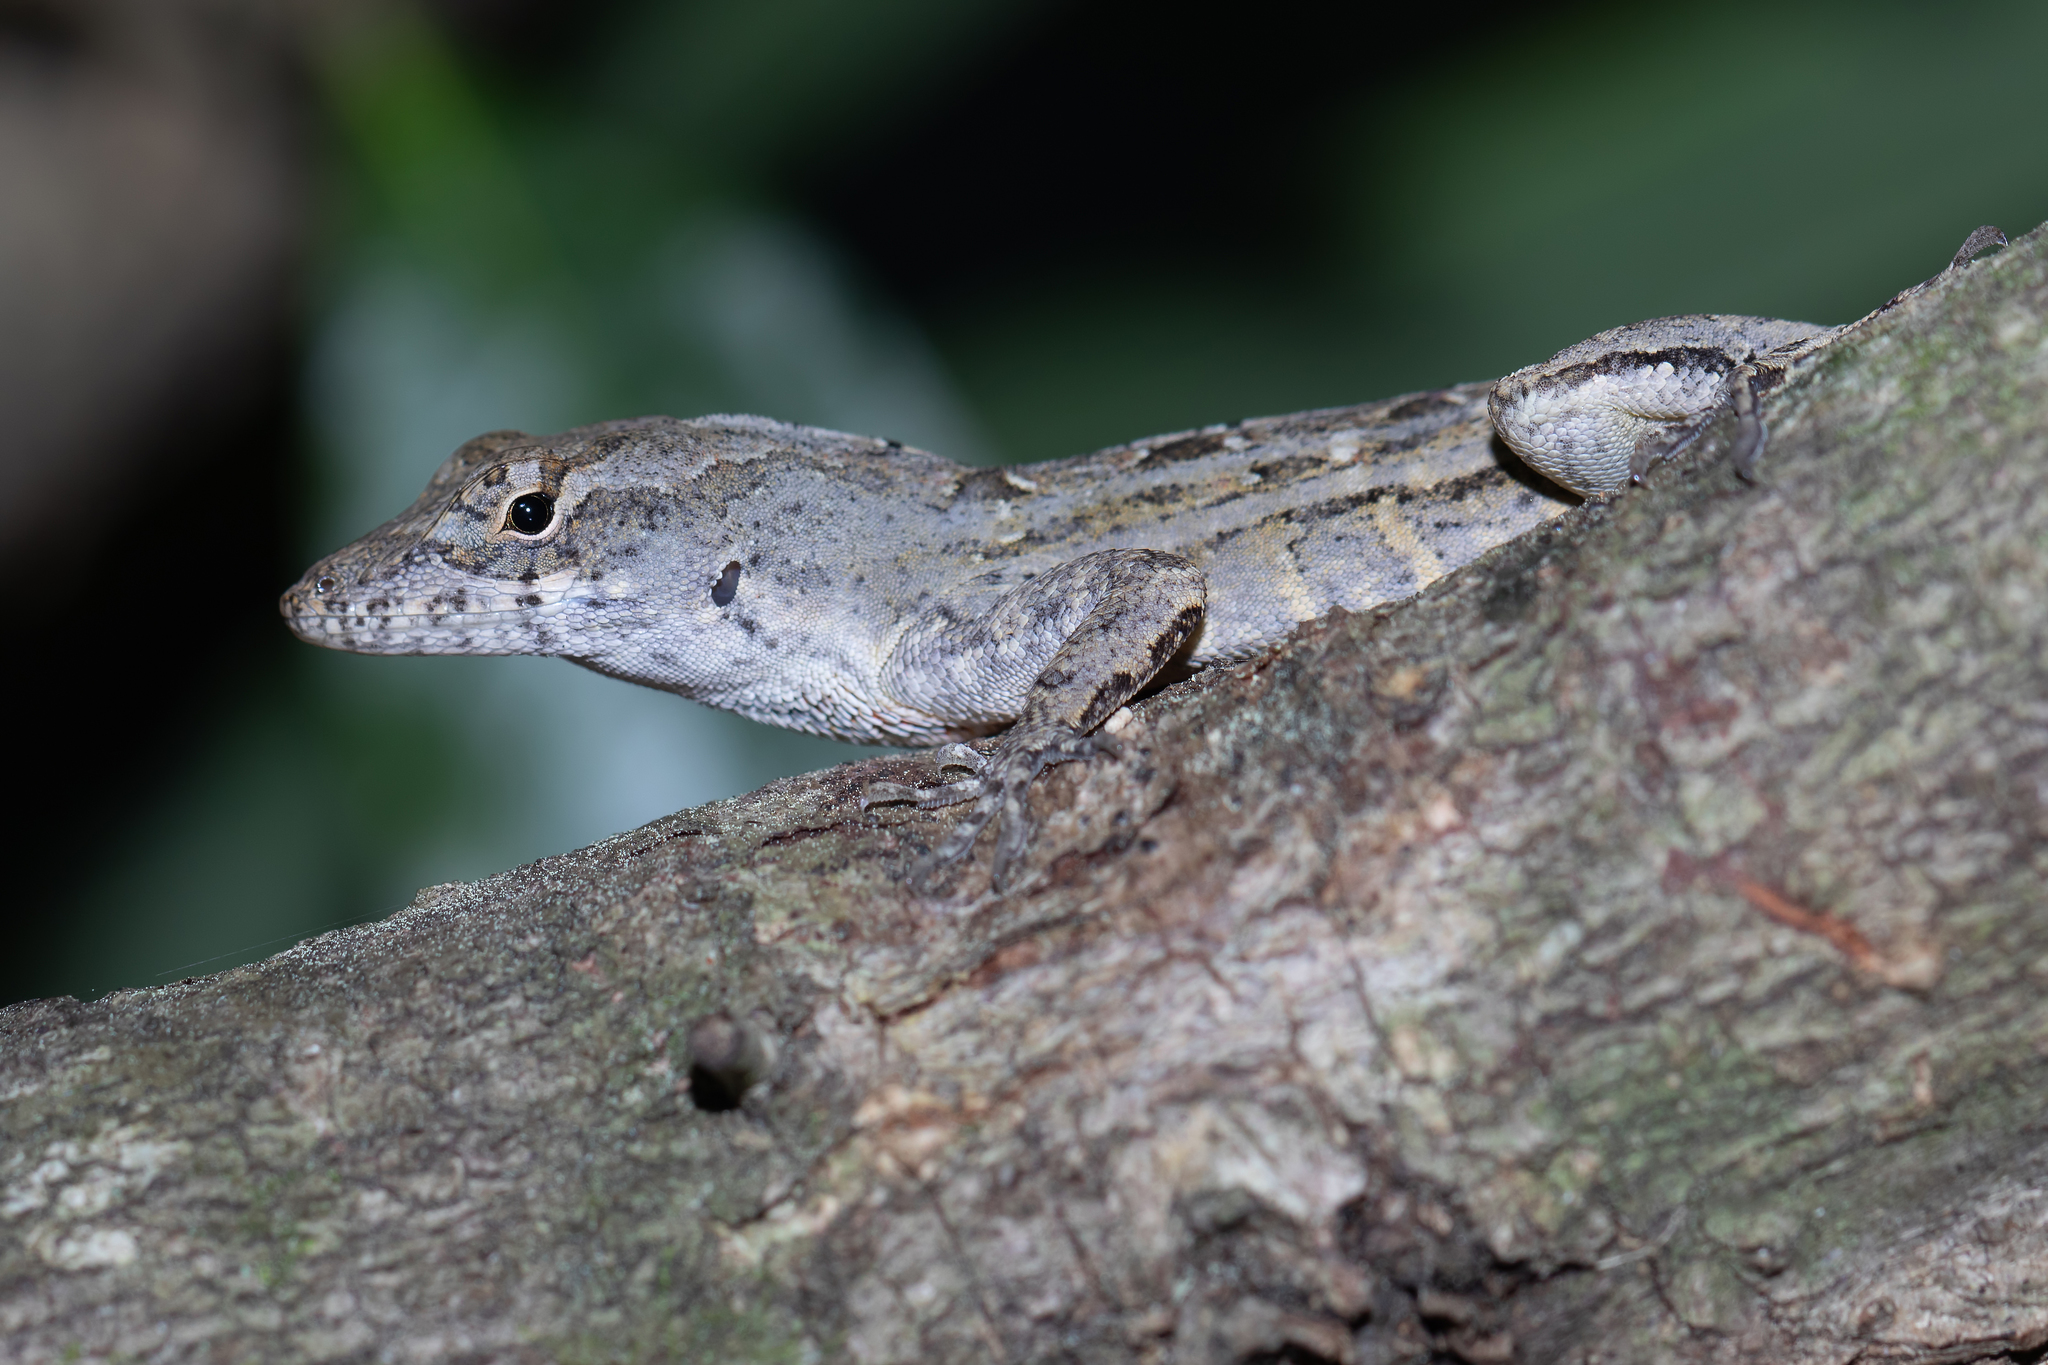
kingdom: Animalia
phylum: Chordata
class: Squamata
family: Dactyloidae
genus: Anolis
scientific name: Anolis sagrei
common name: Brown anole
